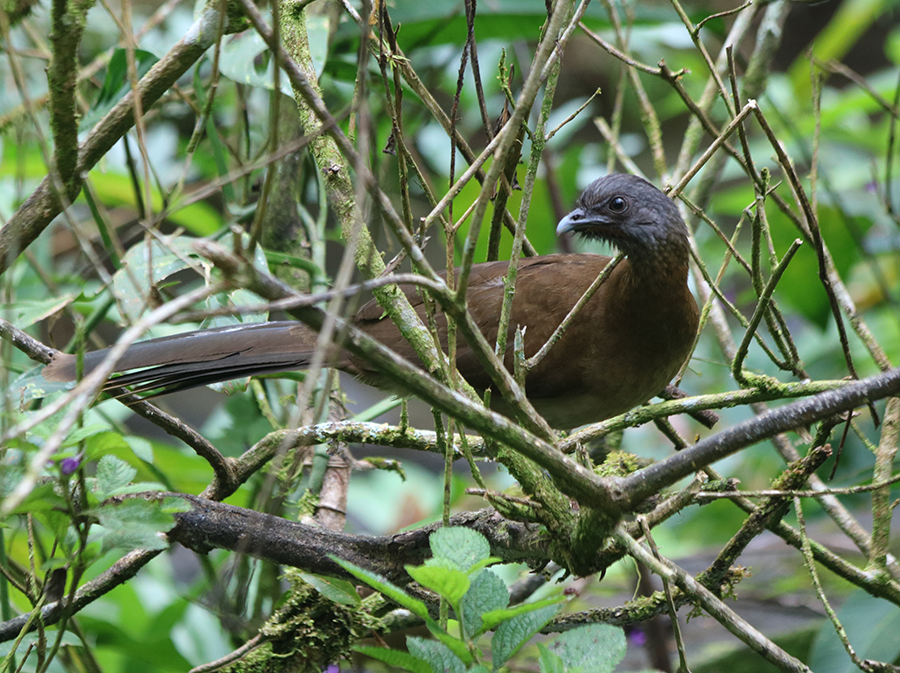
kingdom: Animalia
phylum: Chordata
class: Aves
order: Galliformes
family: Cracidae
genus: Ortalis
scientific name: Ortalis cinereiceps
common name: Grey-headed chachalaca
